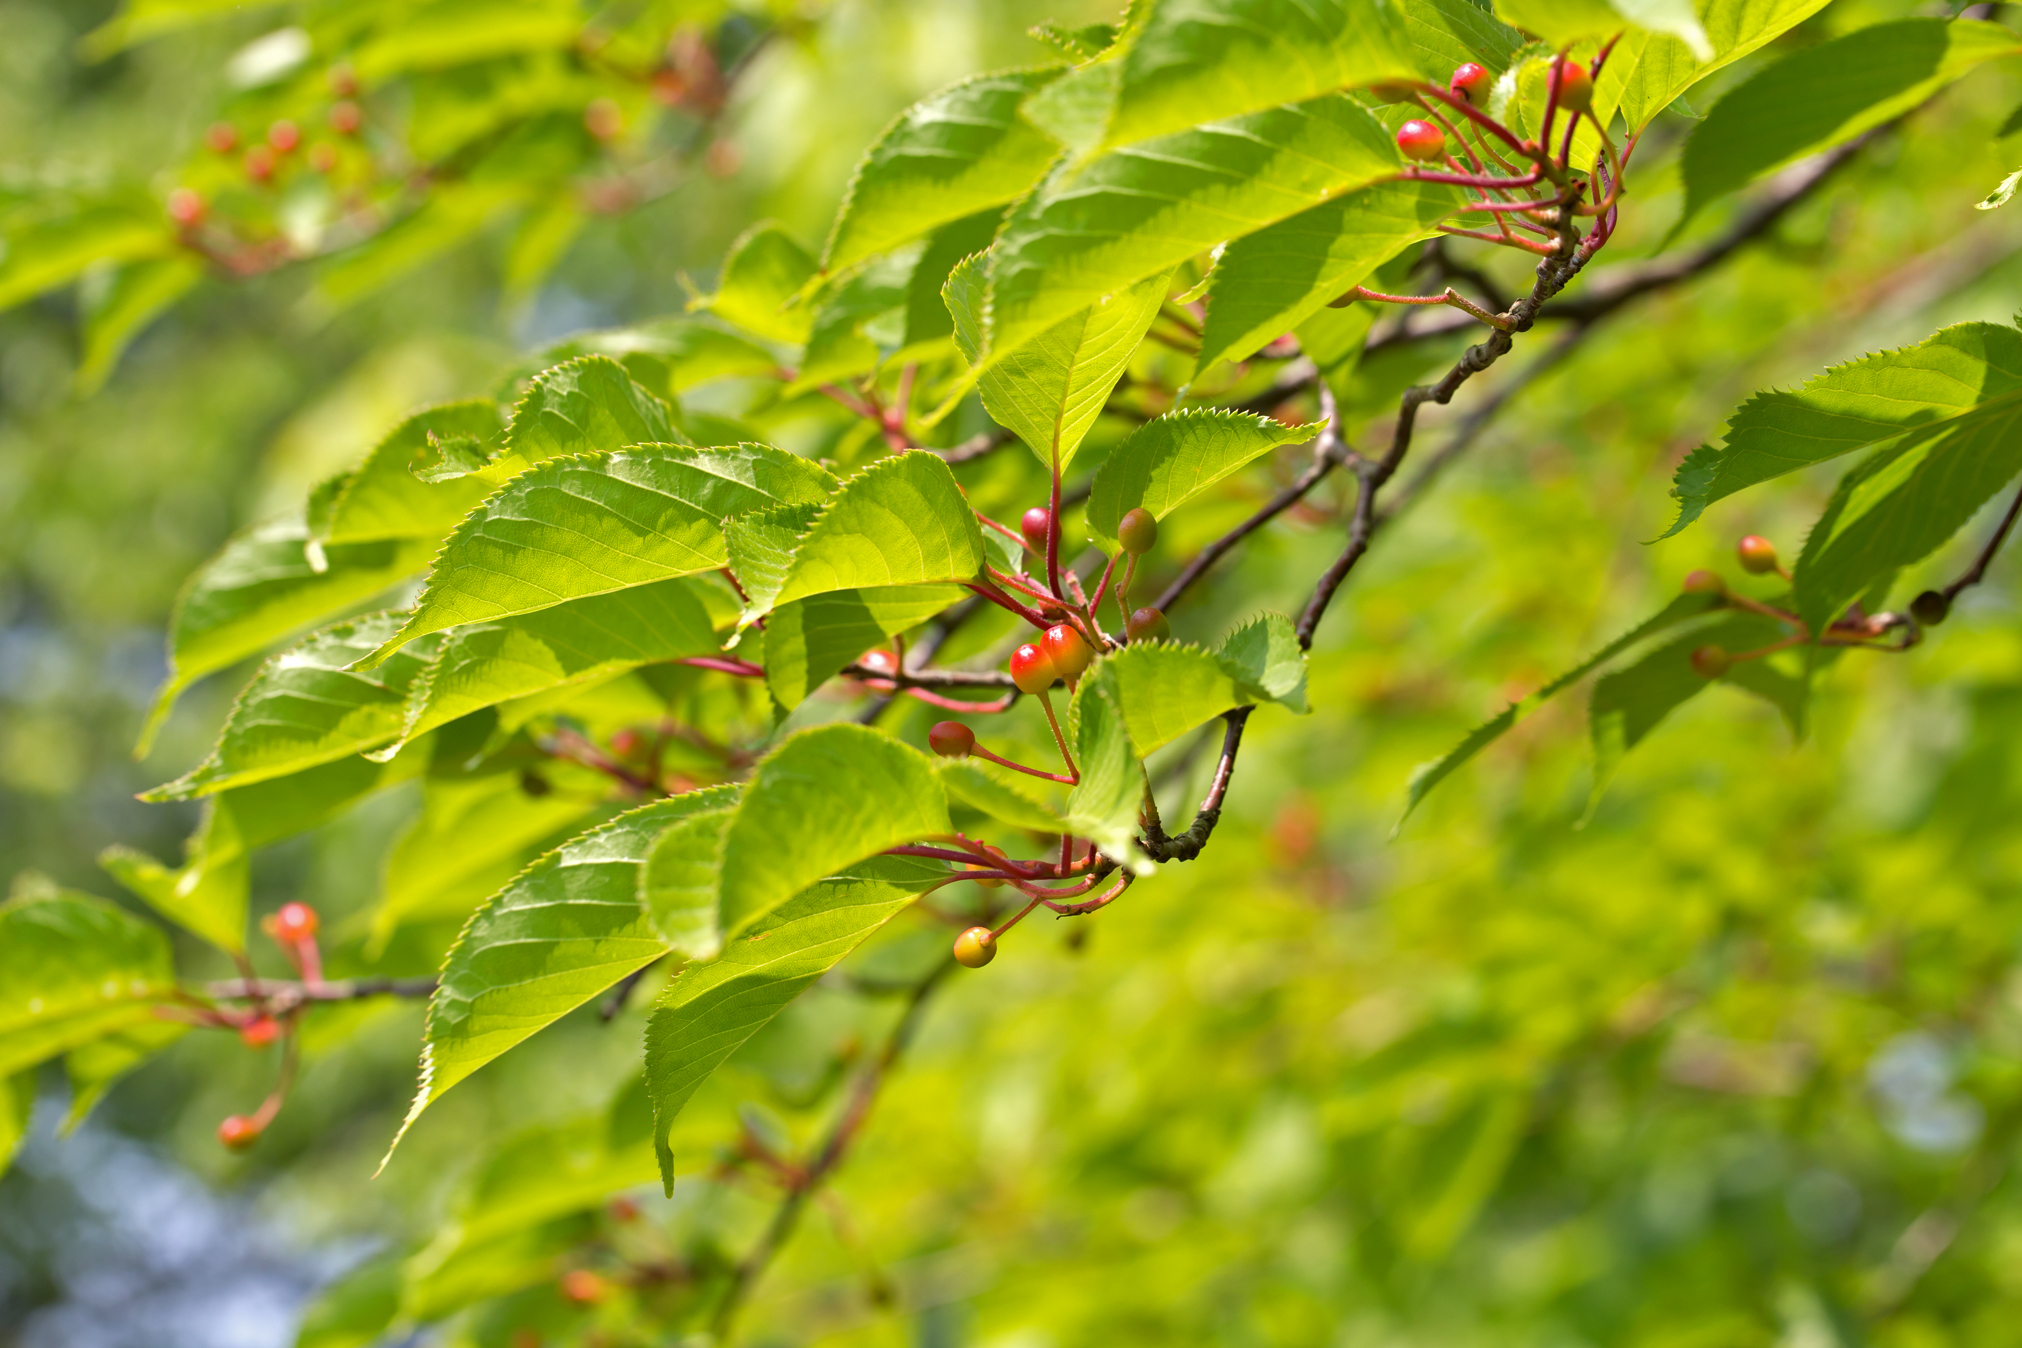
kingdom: Plantae
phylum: Tracheophyta
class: Magnoliopsida
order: Rosales
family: Rosaceae
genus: Prunus
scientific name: Prunus avium
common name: Sweet cherry
